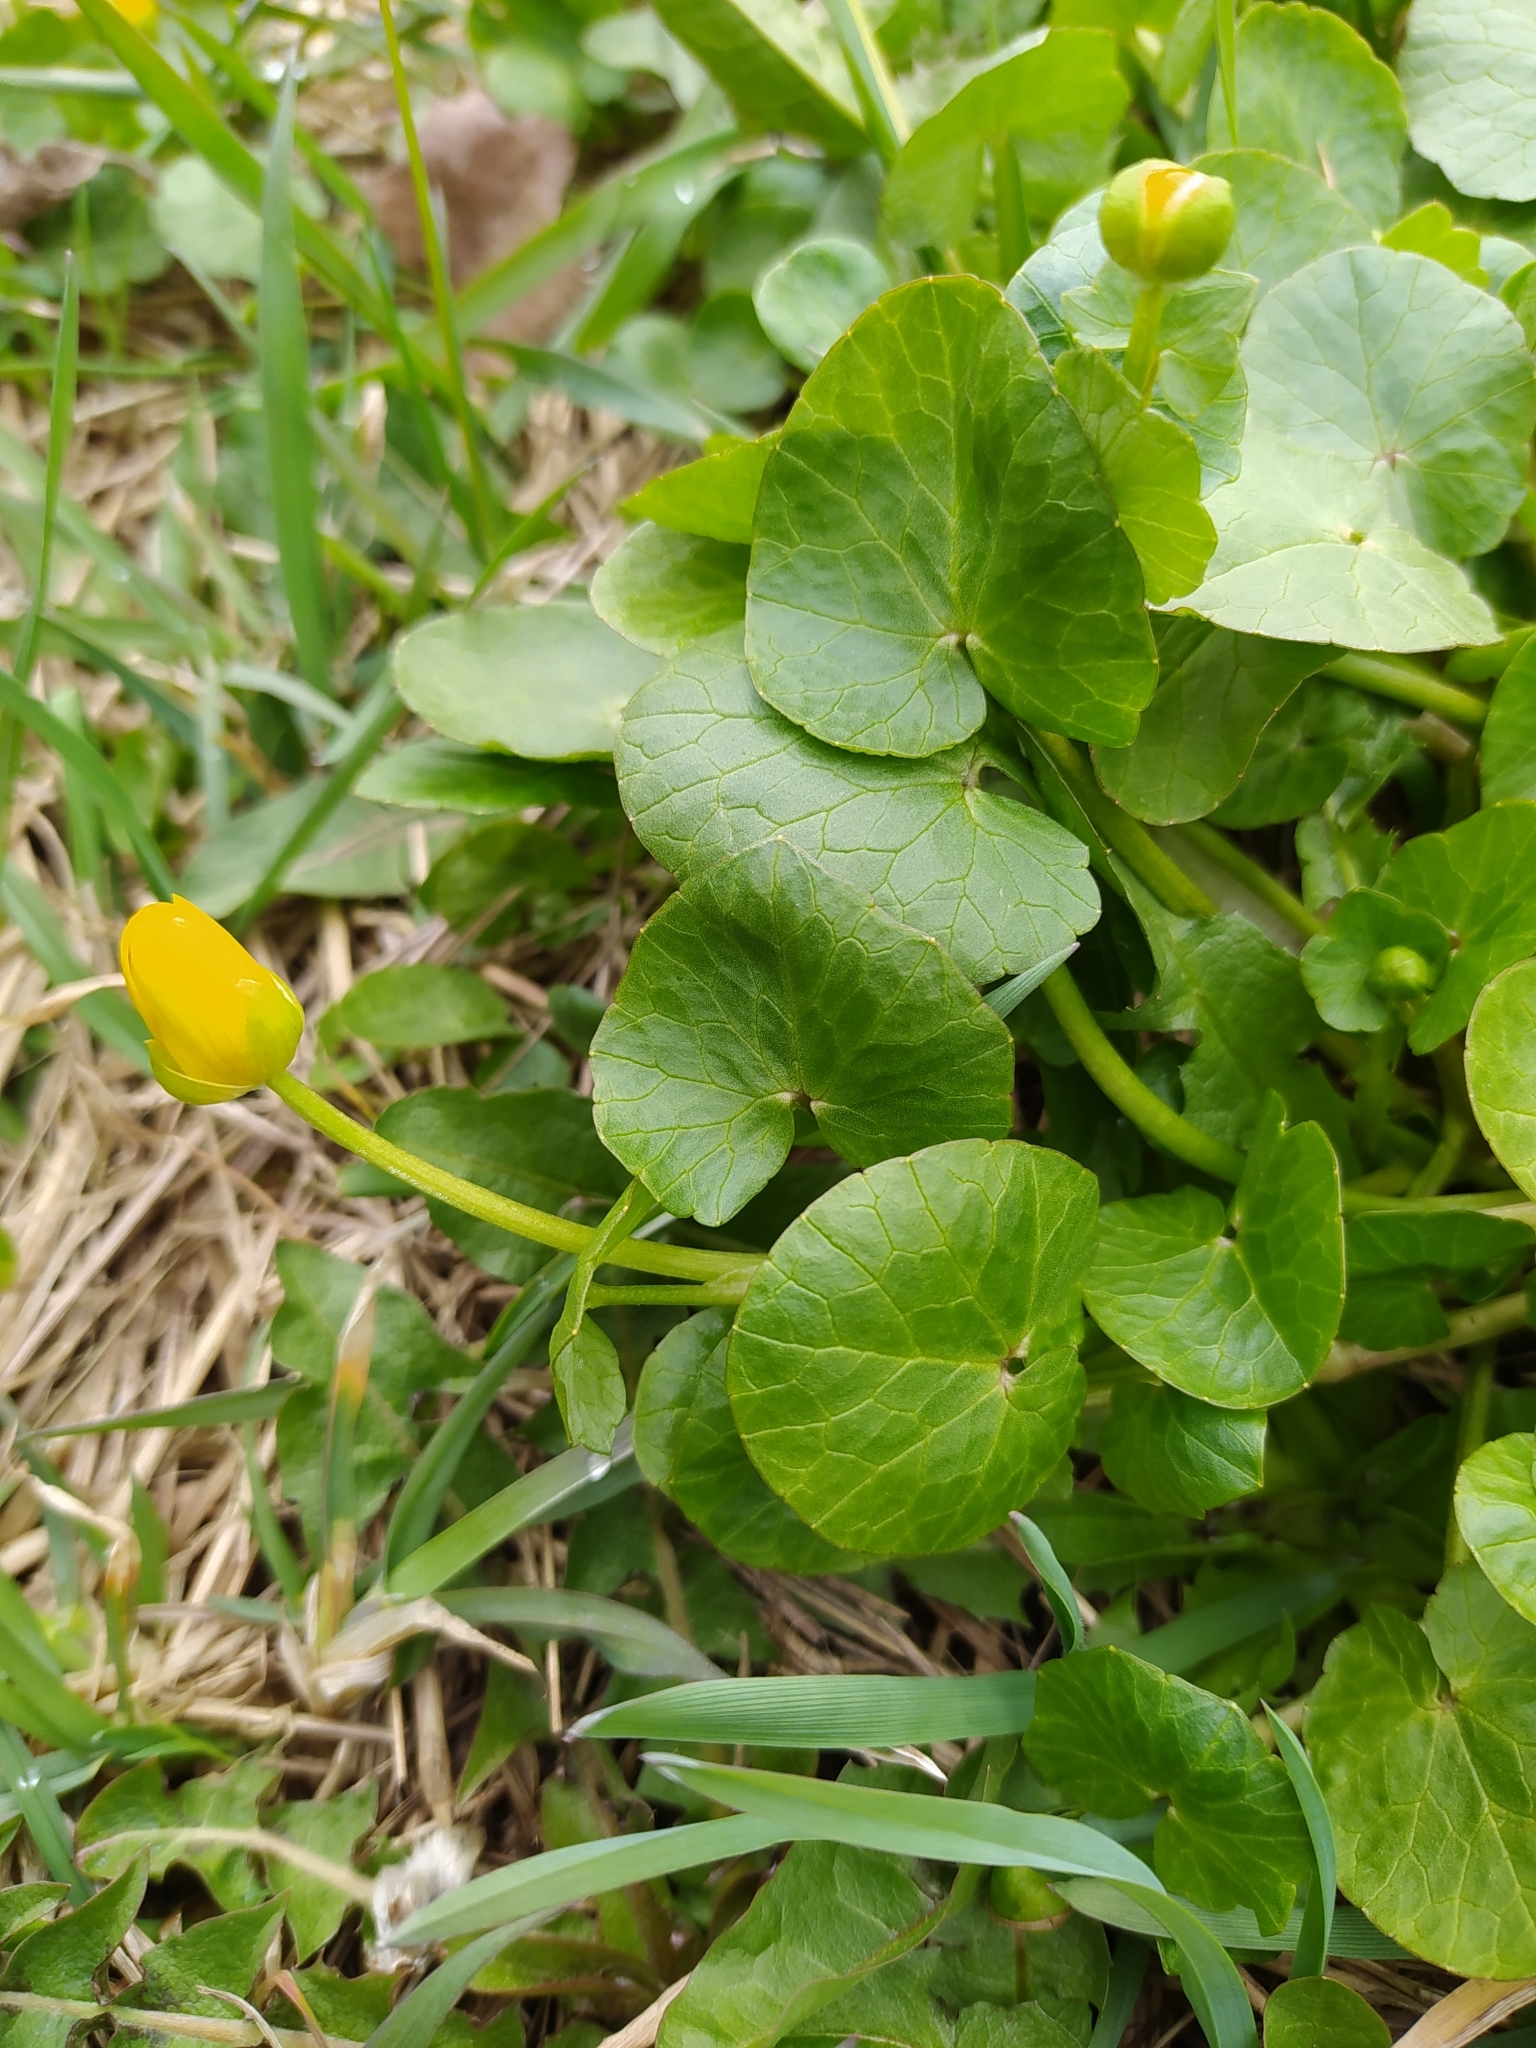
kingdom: Plantae
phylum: Tracheophyta
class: Magnoliopsida
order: Ranunculales
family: Ranunculaceae
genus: Ficaria
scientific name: Ficaria verna
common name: Lesser celandine
